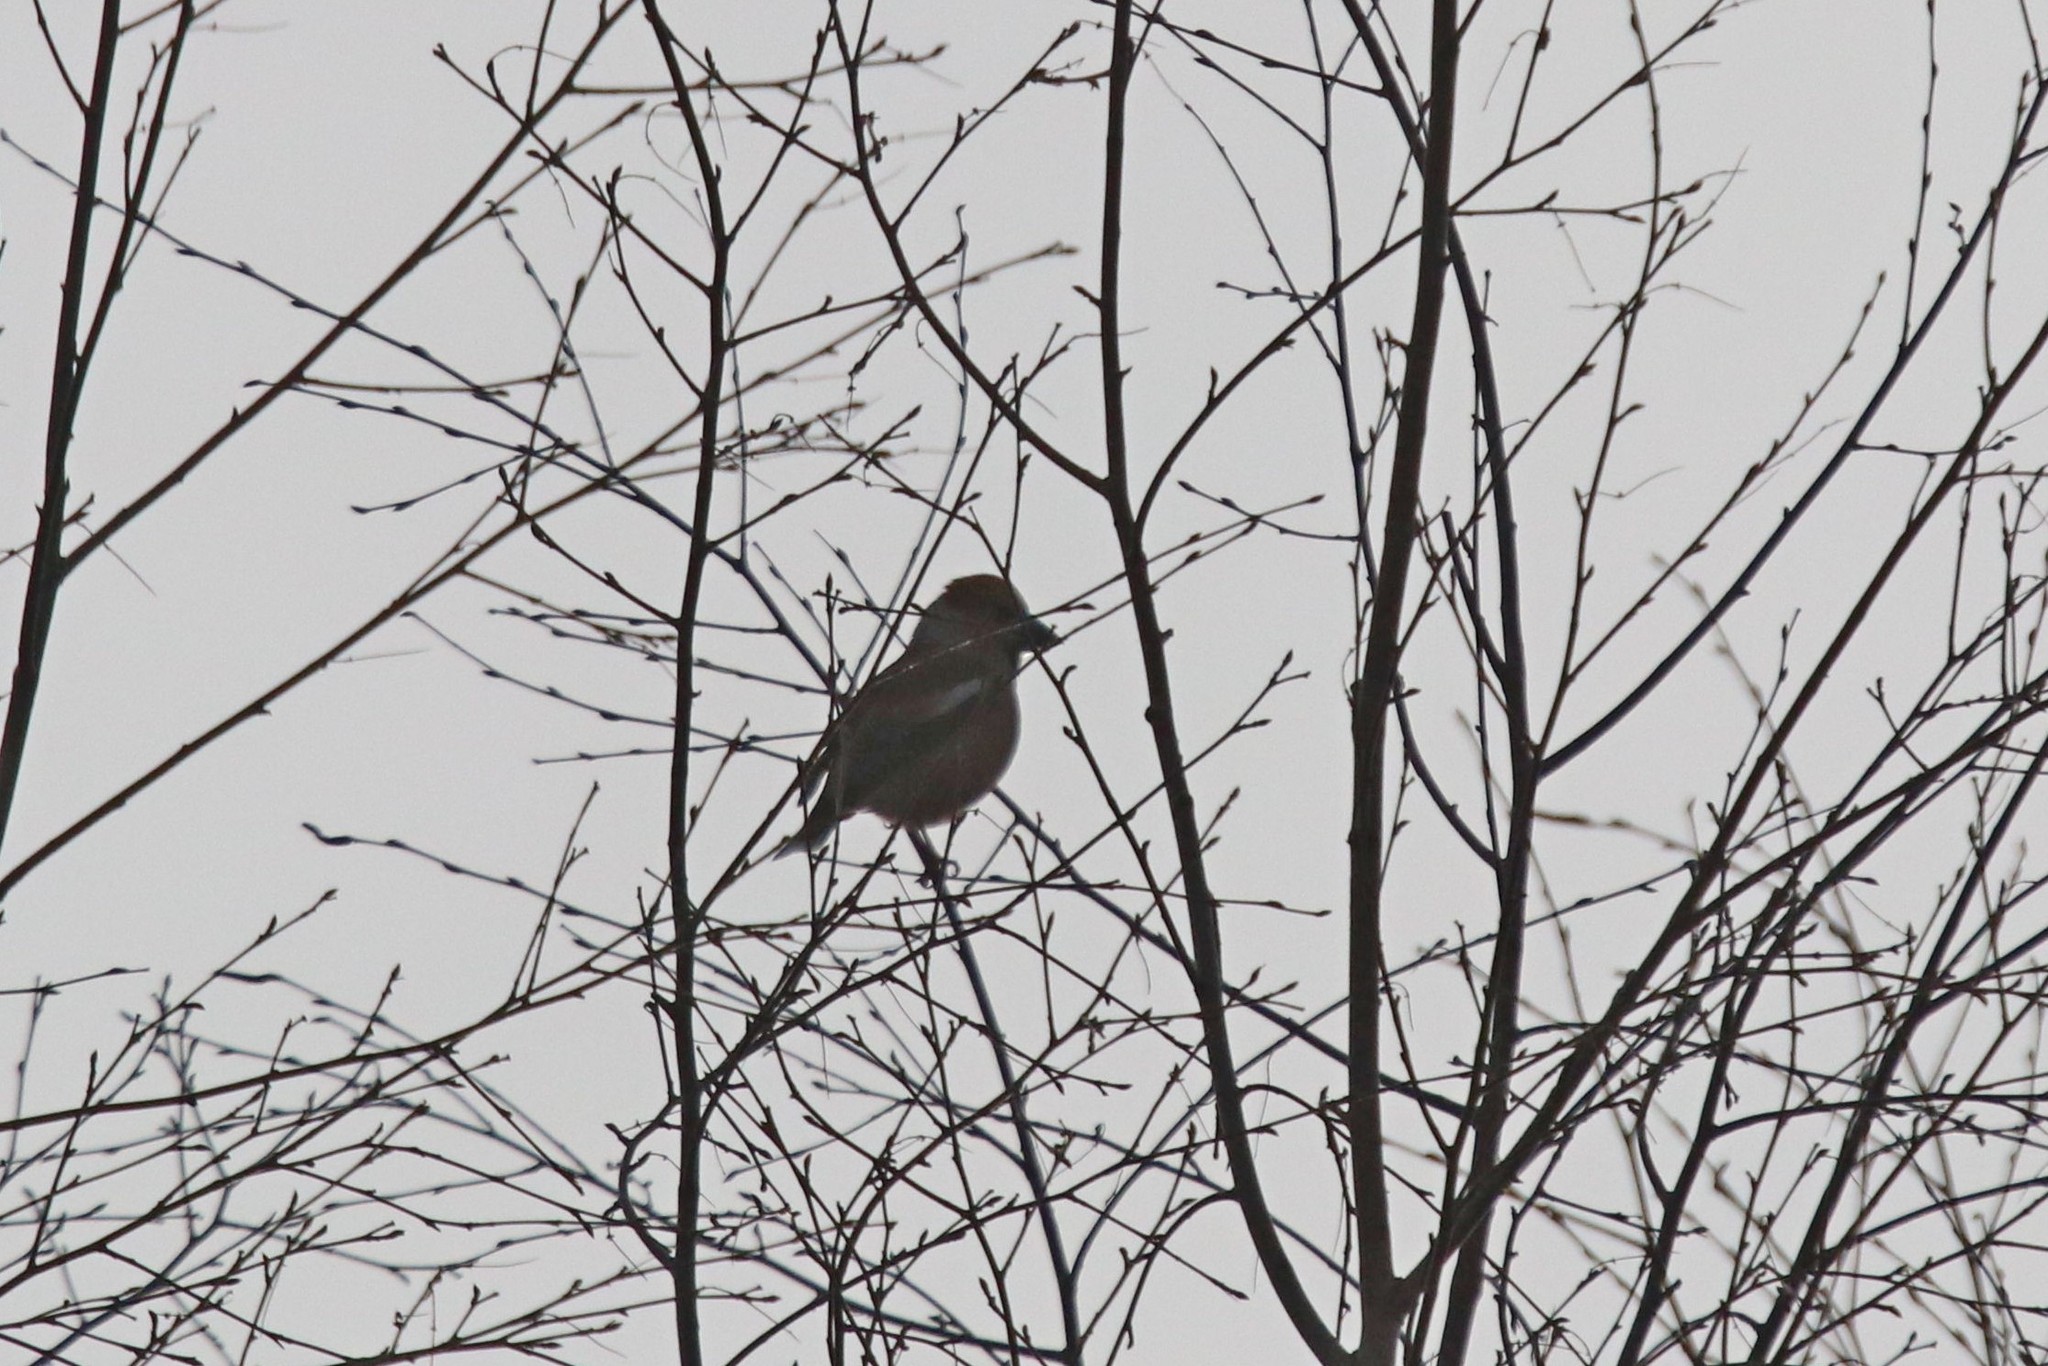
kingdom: Animalia
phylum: Chordata
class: Aves
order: Passeriformes
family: Fringillidae
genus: Coccothraustes
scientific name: Coccothraustes coccothraustes
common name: Hawfinch
